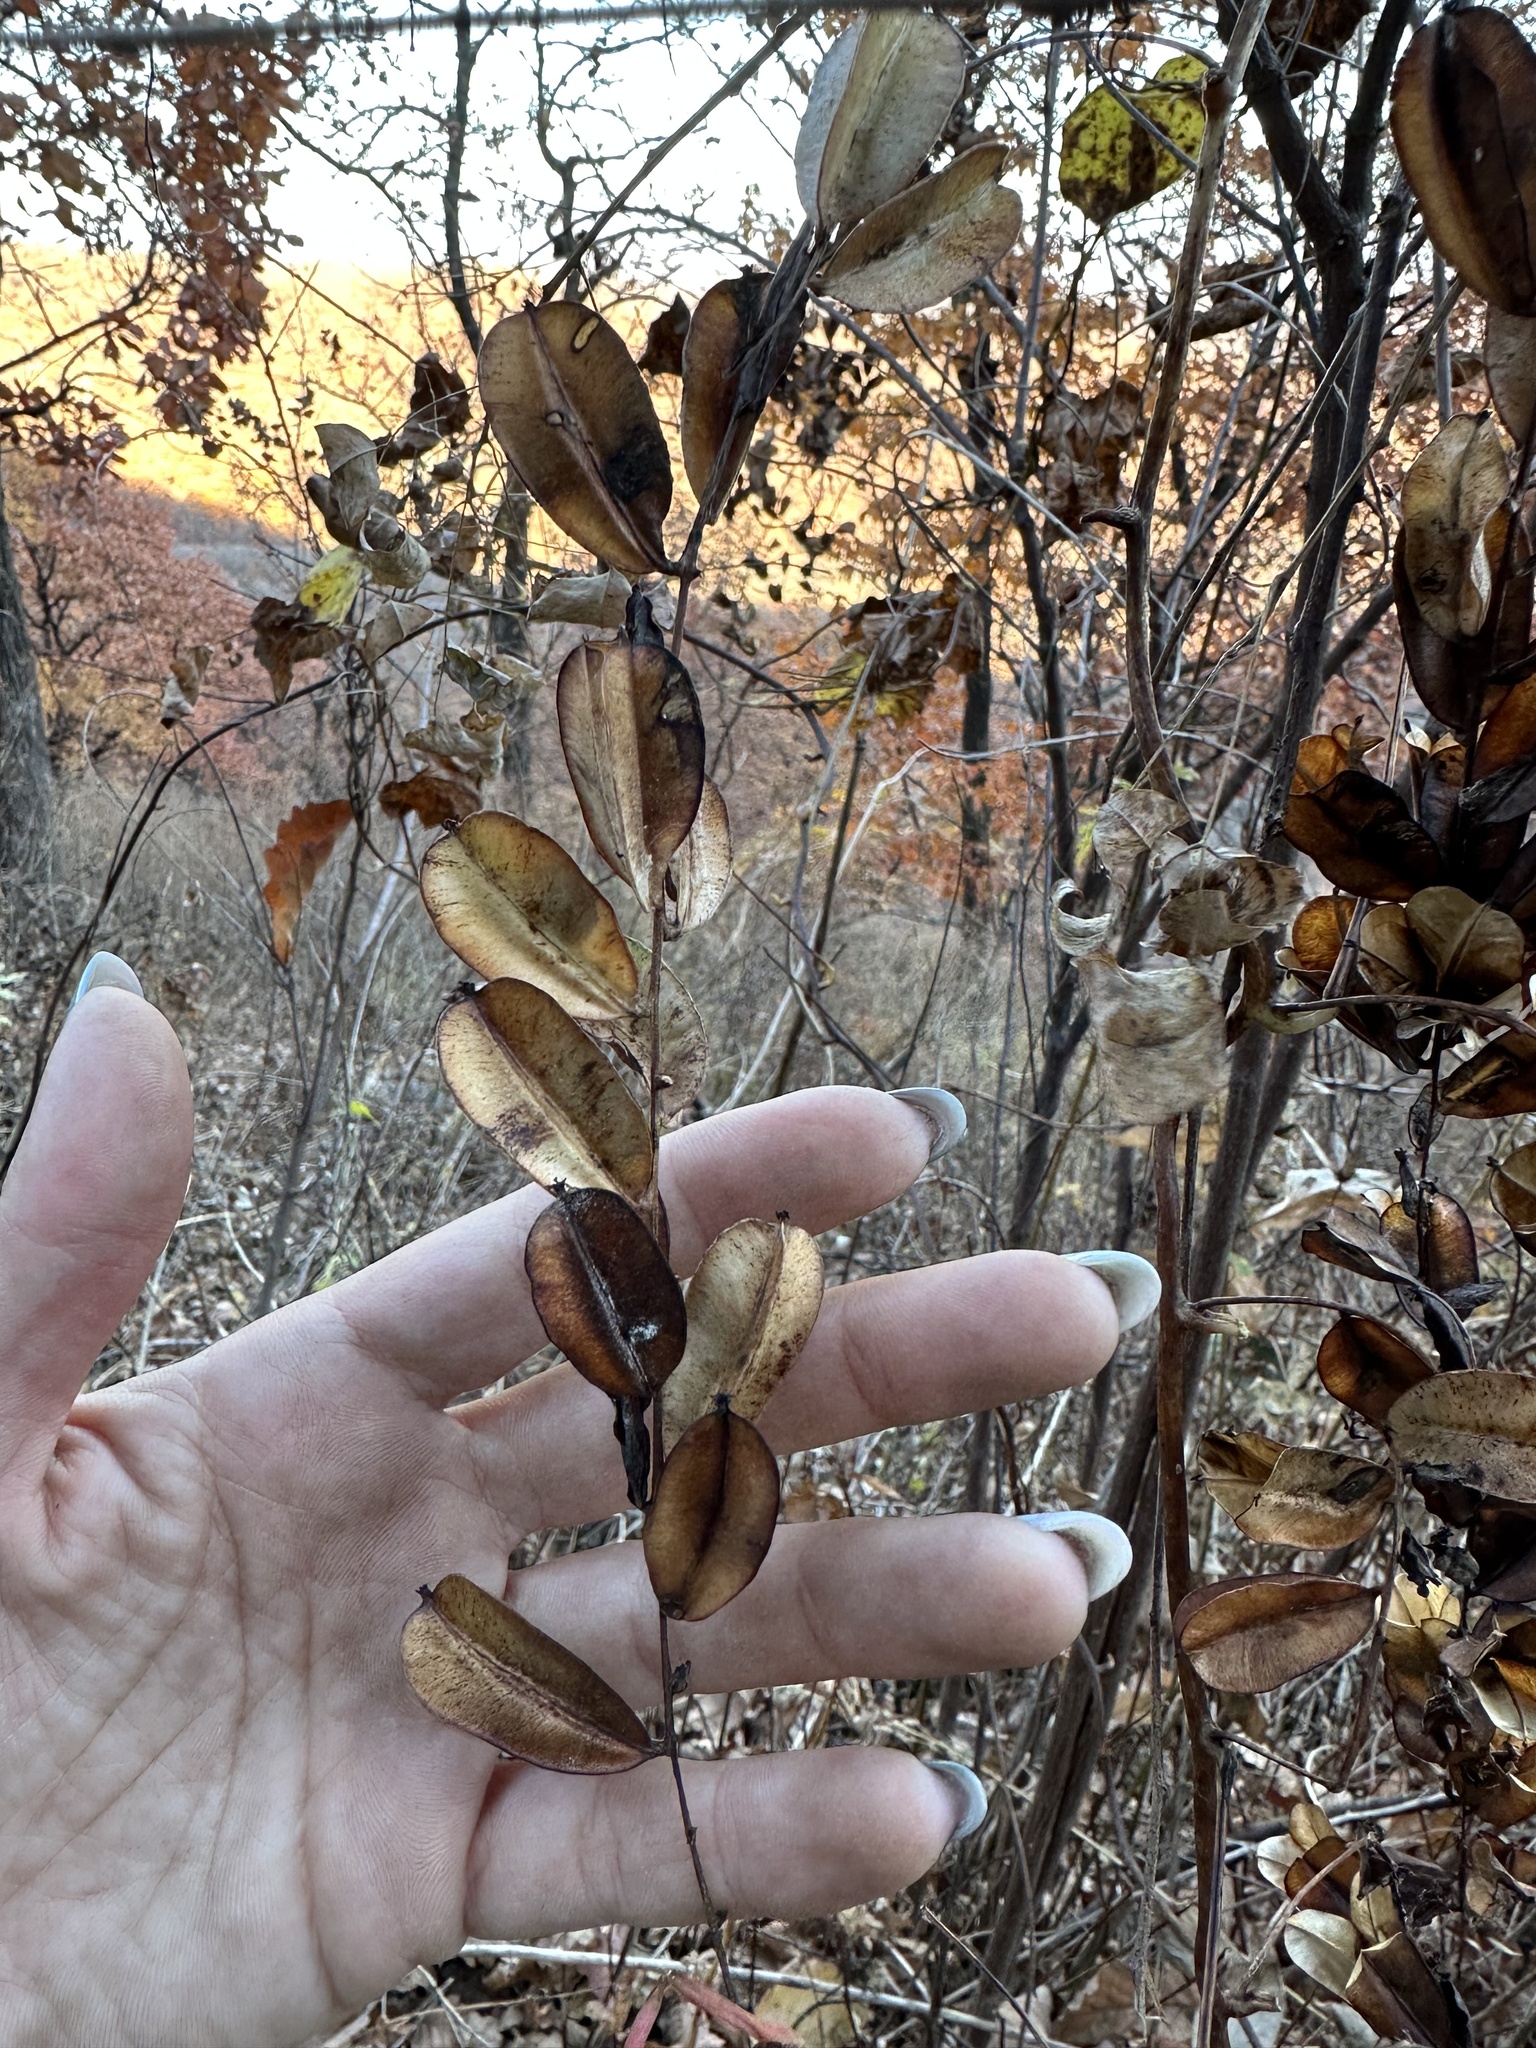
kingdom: Plantae
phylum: Tracheophyta
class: Liliopsida
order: Dioscoreales
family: Dioscoreaceae
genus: Dioscorea
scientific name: Dioscorea nipponica
